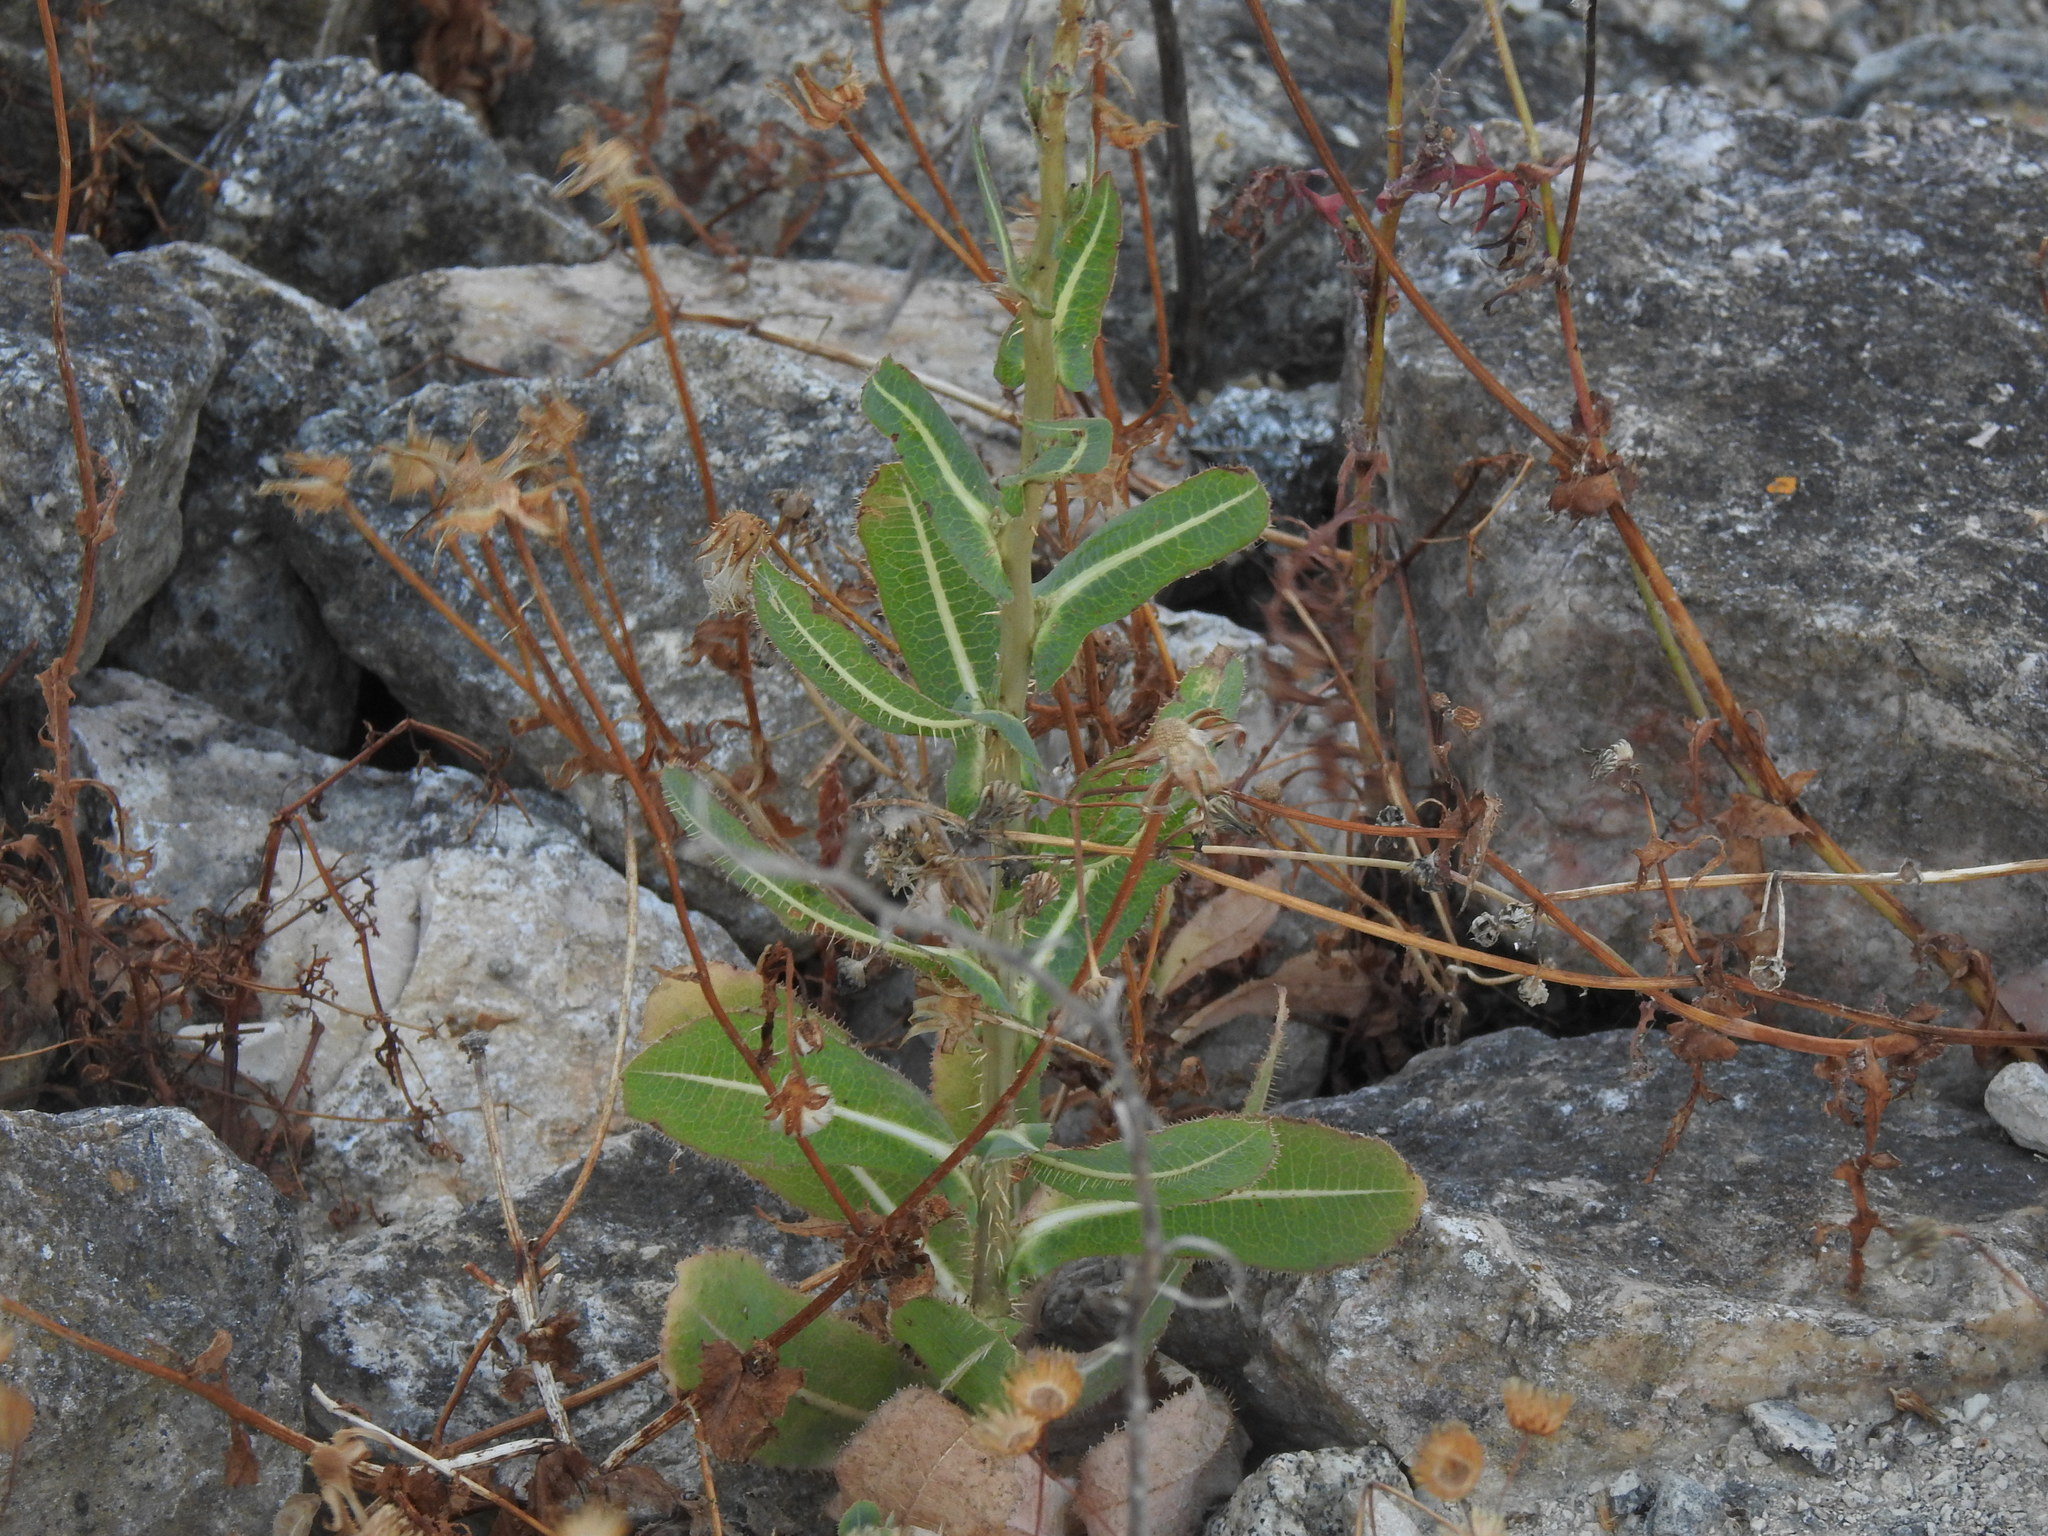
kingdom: Plantae
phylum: Tracheophyta
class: Magnoliopsida
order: Asterales
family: Asteraceae
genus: Lactuca
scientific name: Lactuca serriola
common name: Prickly lettuce
